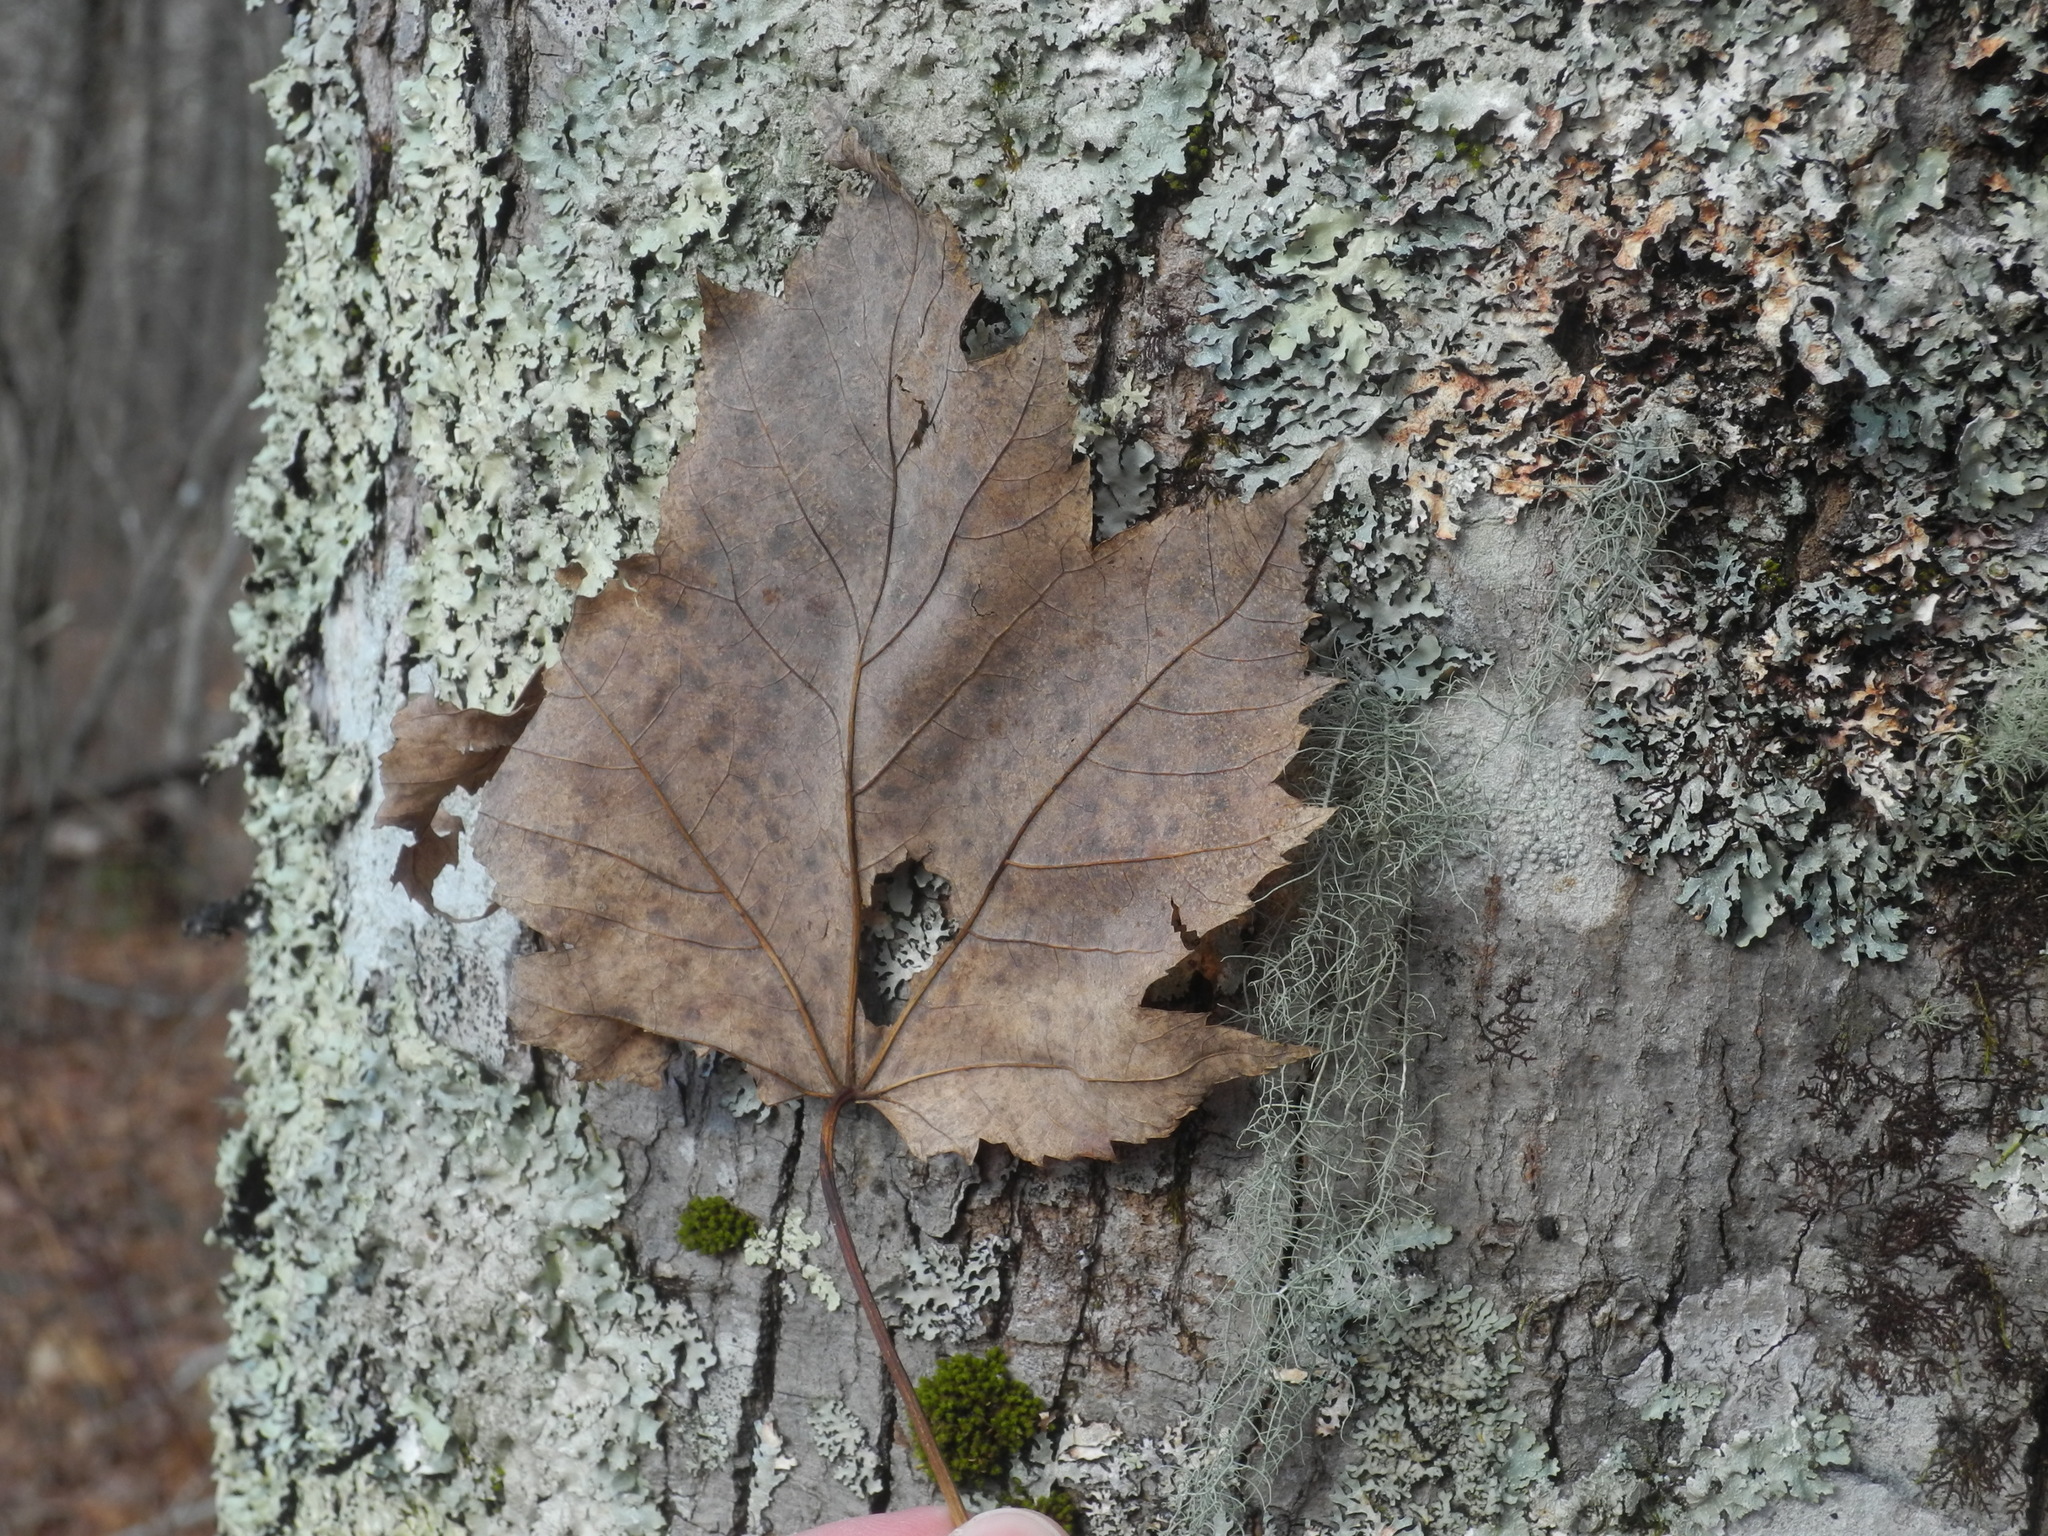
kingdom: Plantae
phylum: Tracheophyta
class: Magnoliopsida
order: Sapindales
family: Sapindaceae
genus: Acer
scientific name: Acer freemanii
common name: Freeman maple
